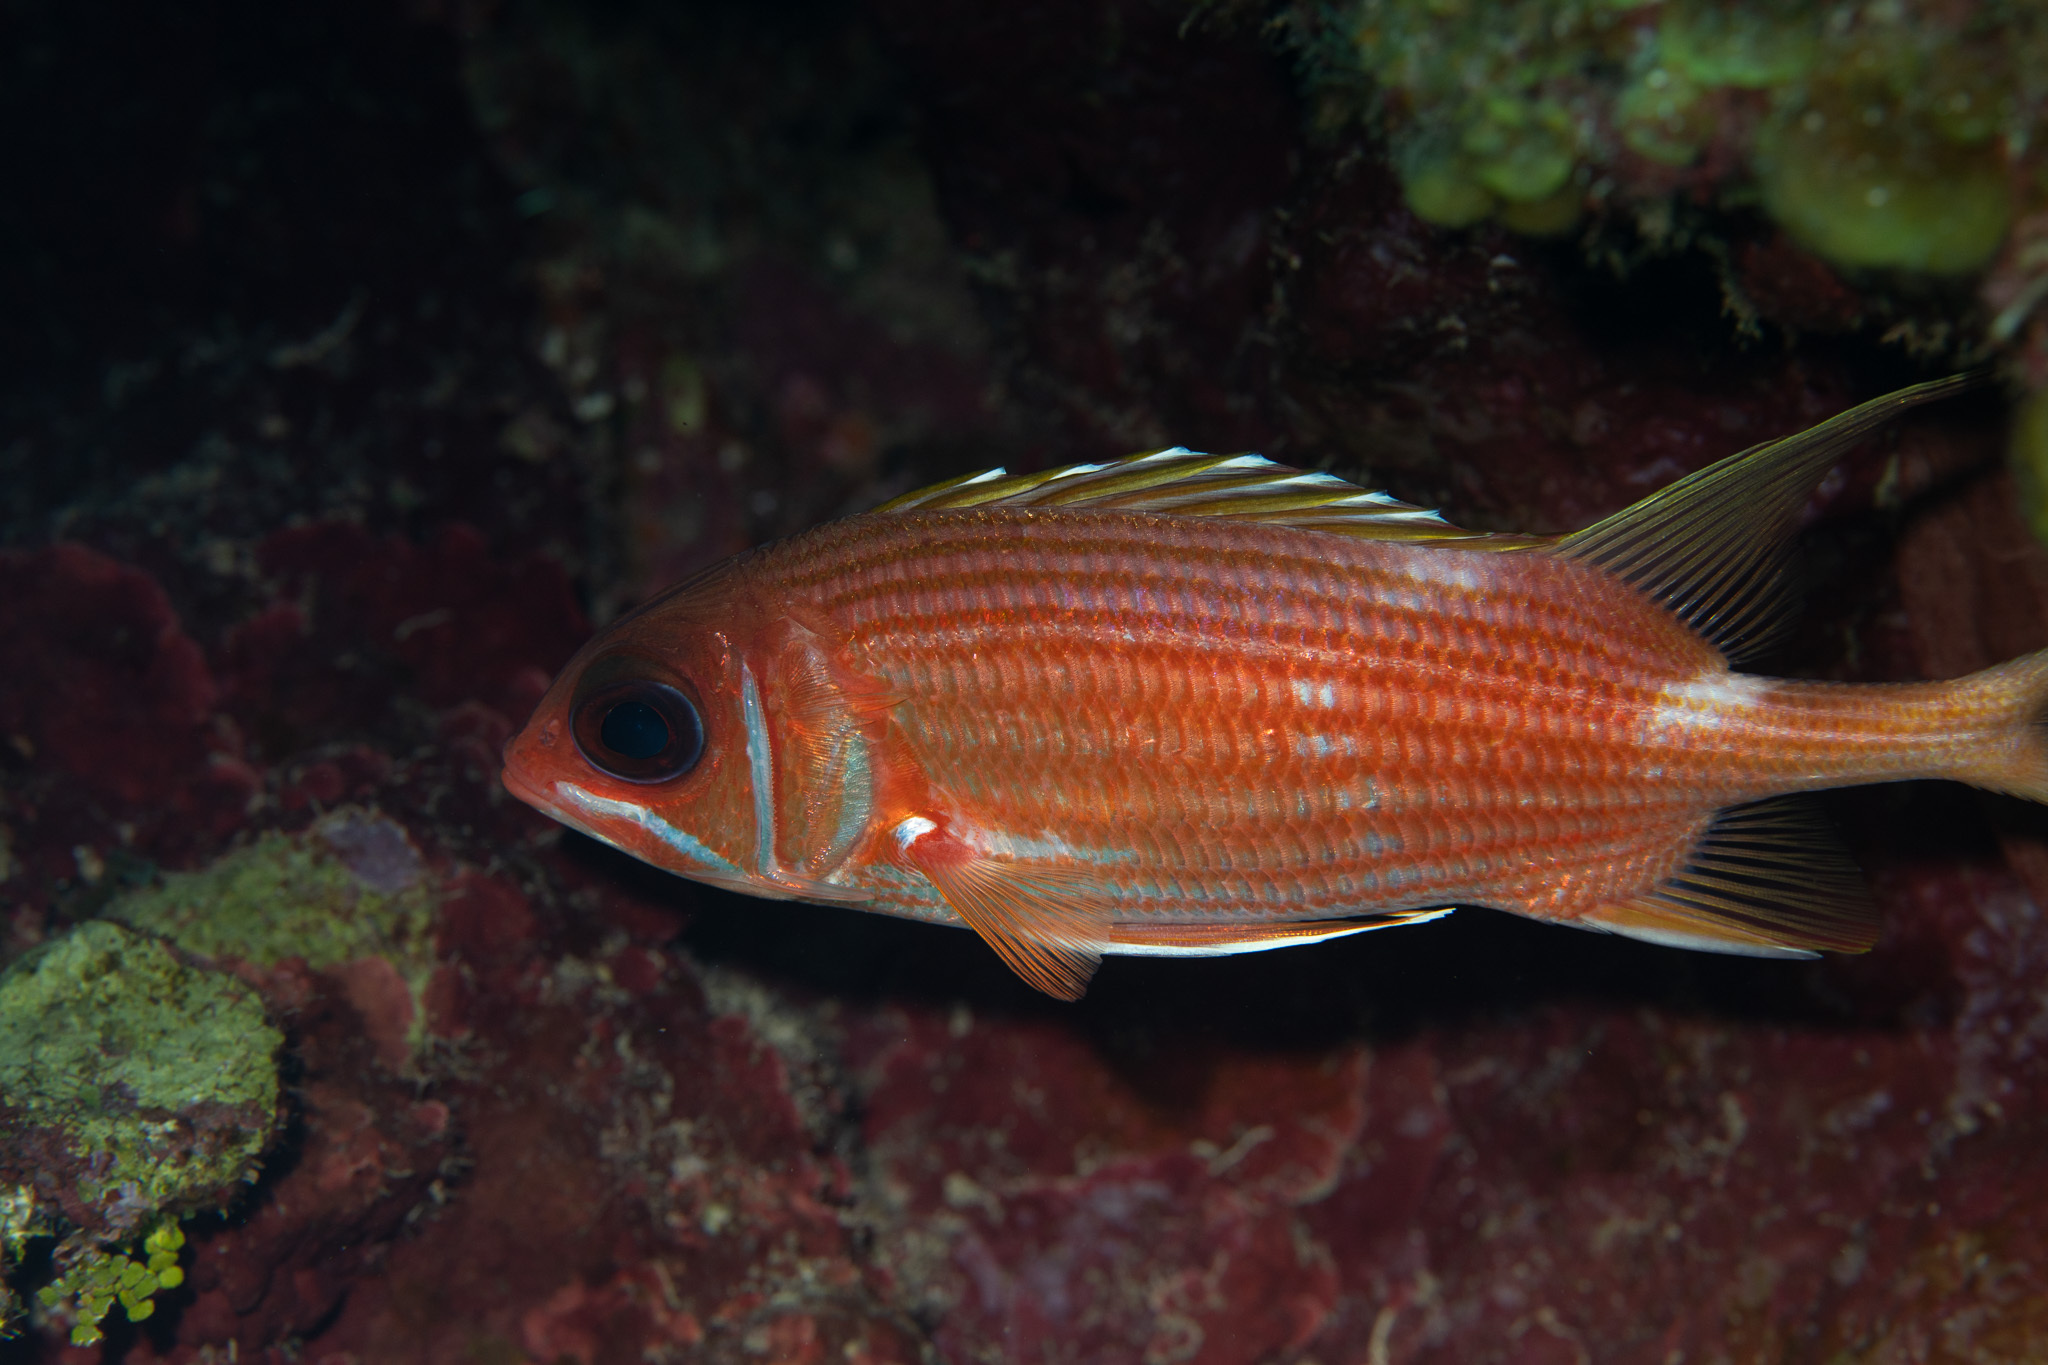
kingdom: Animalia
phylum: Chordata
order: Beryciformes
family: Holocentridae
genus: Holocentrus
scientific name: Holocentrus rufus
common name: Longspine squirrelfish
